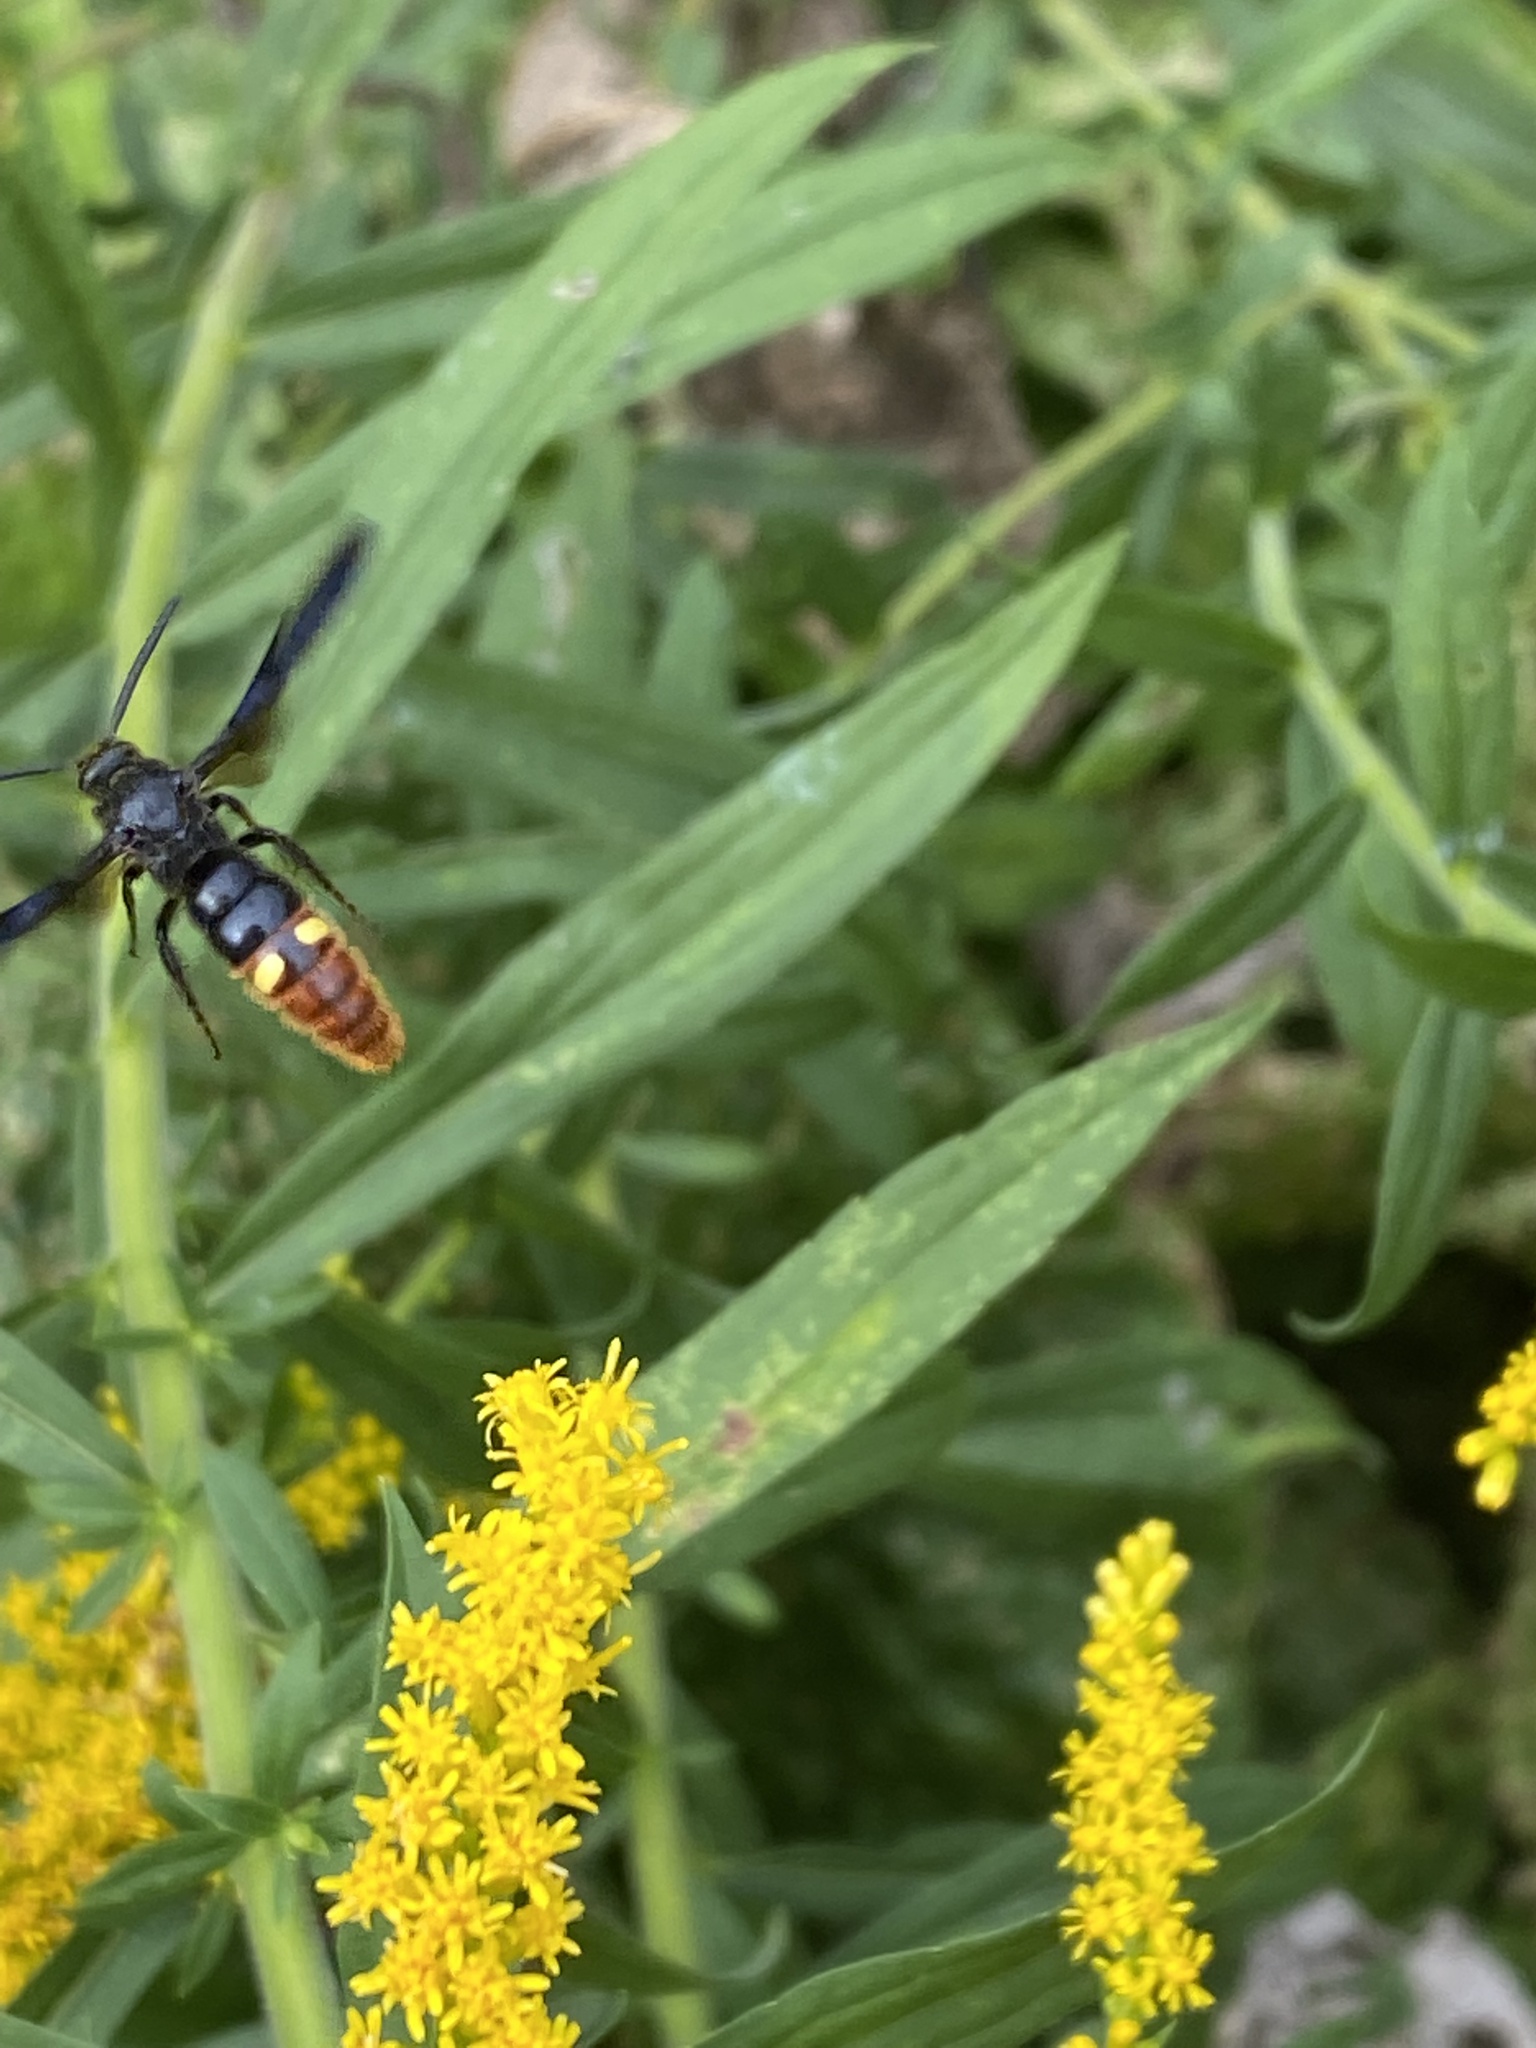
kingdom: Animalia
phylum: Arthropoda
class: Insecta
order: Hymenoptera
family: Scoliidae
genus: Scolia
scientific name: Scolia dubia
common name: Blue-winged scoliid wasp
